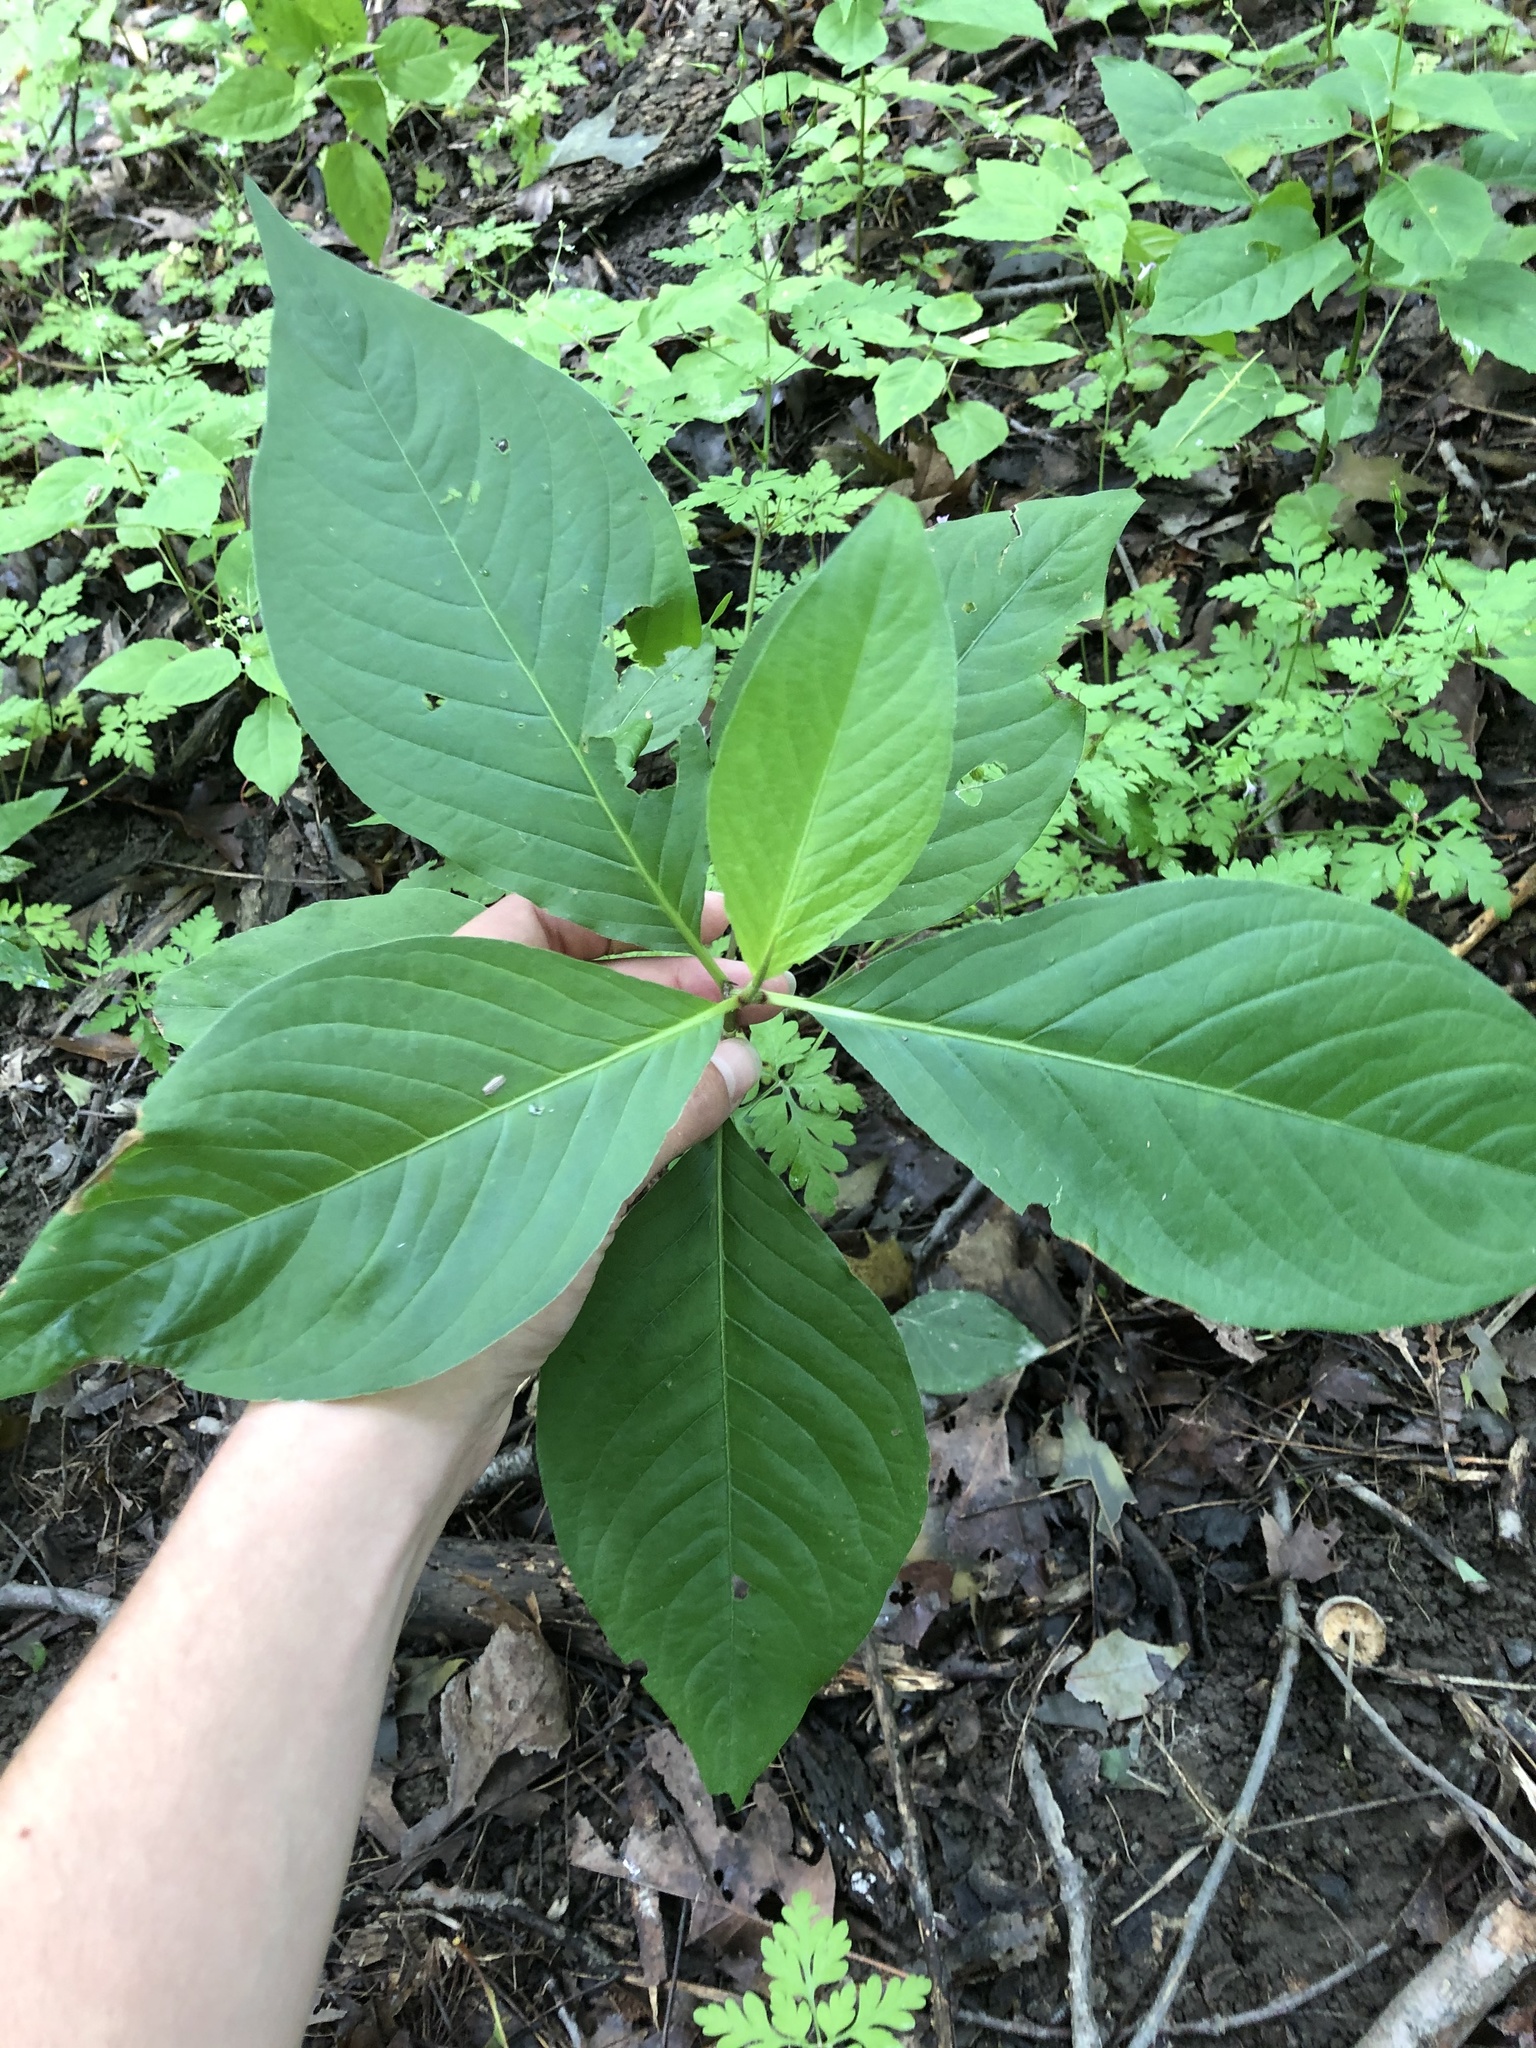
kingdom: Plantae
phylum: Tracheophyta
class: Magnoliopsida
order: Caryophyllales
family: Polygonaceae
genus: Persicaria
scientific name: Persicaria virginiana
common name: Jumpseed
